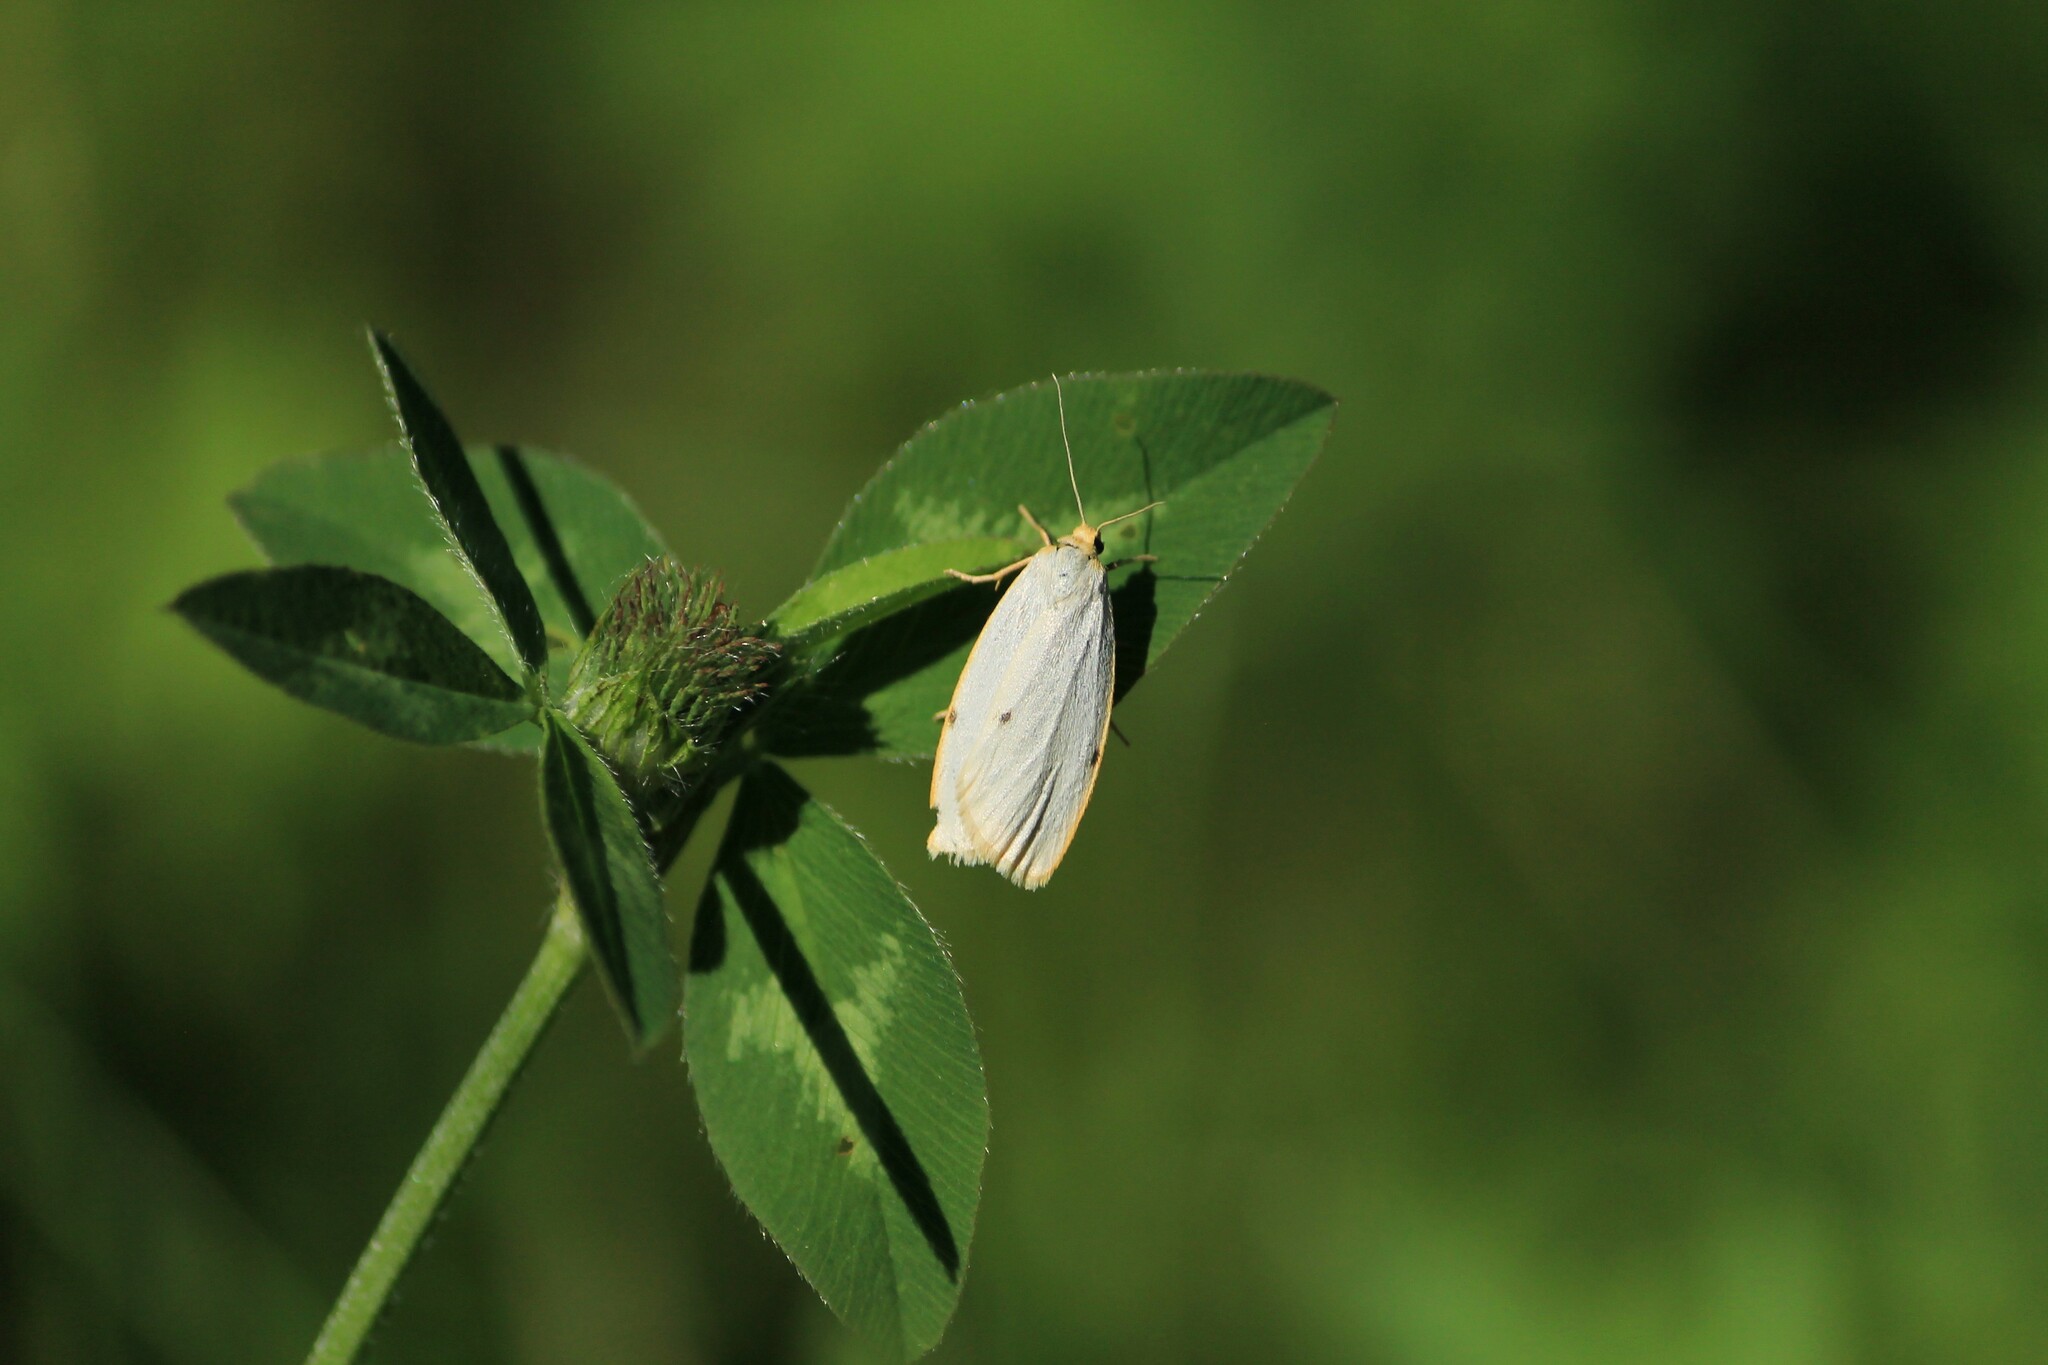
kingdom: Animalia
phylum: Arthropoda
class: Insecta
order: Lepidoptera
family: Erebidae
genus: Cybosia
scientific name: Cybosia mesomella
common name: Four-dotted footman
